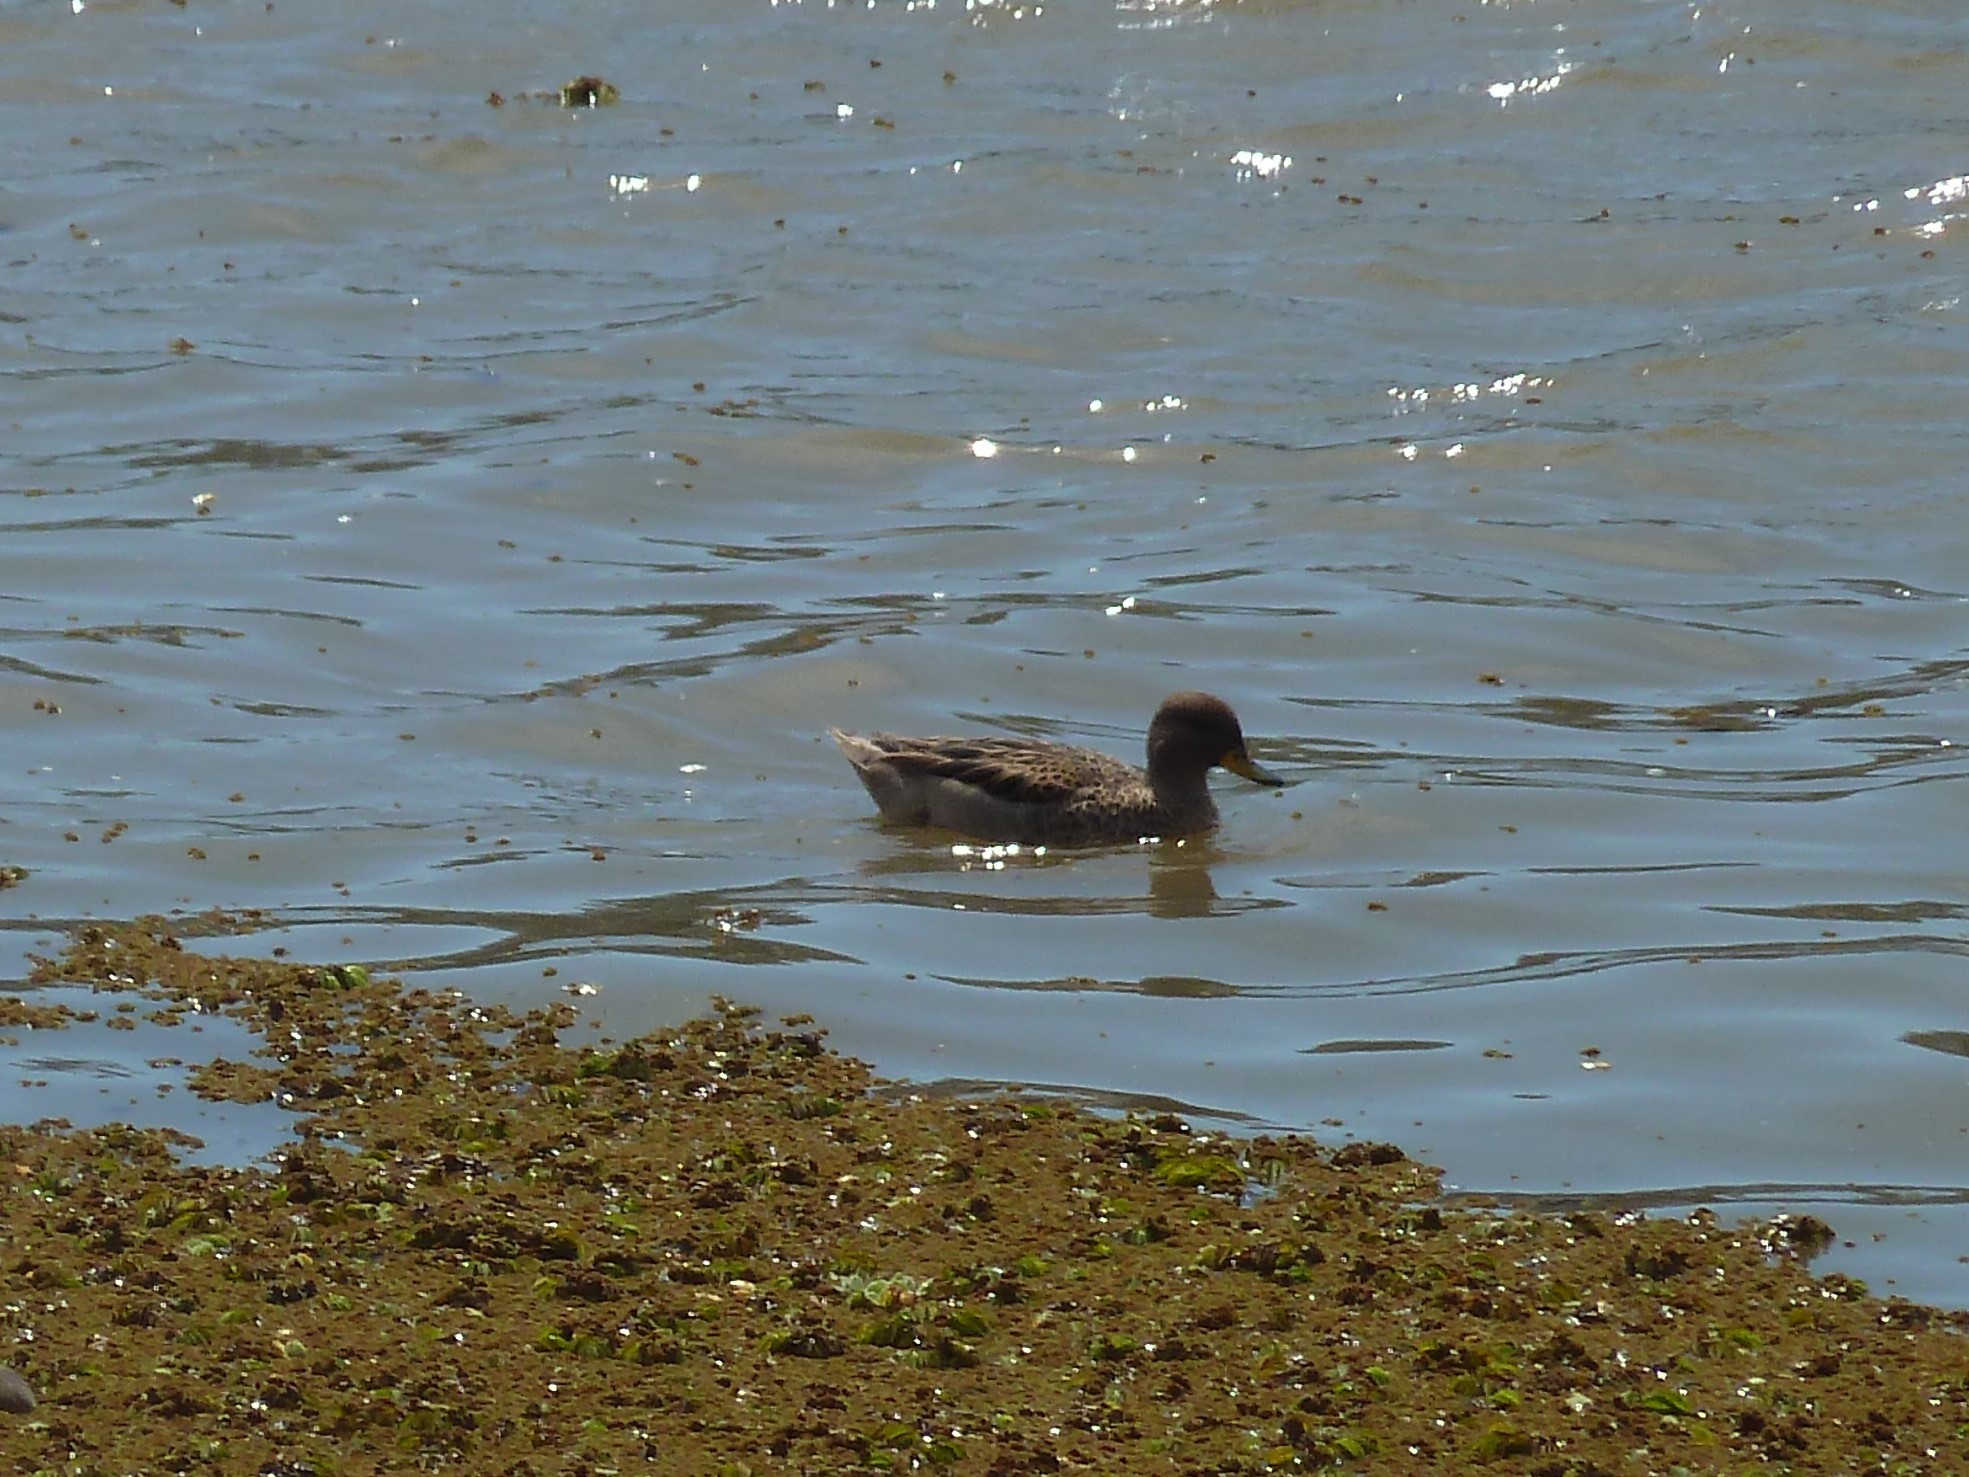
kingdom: Animalia
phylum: Chordata
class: Aves
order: Anseriformes
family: Anatidae
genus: Anas
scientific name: Anas flavirostris
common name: Yellow-billed teal
